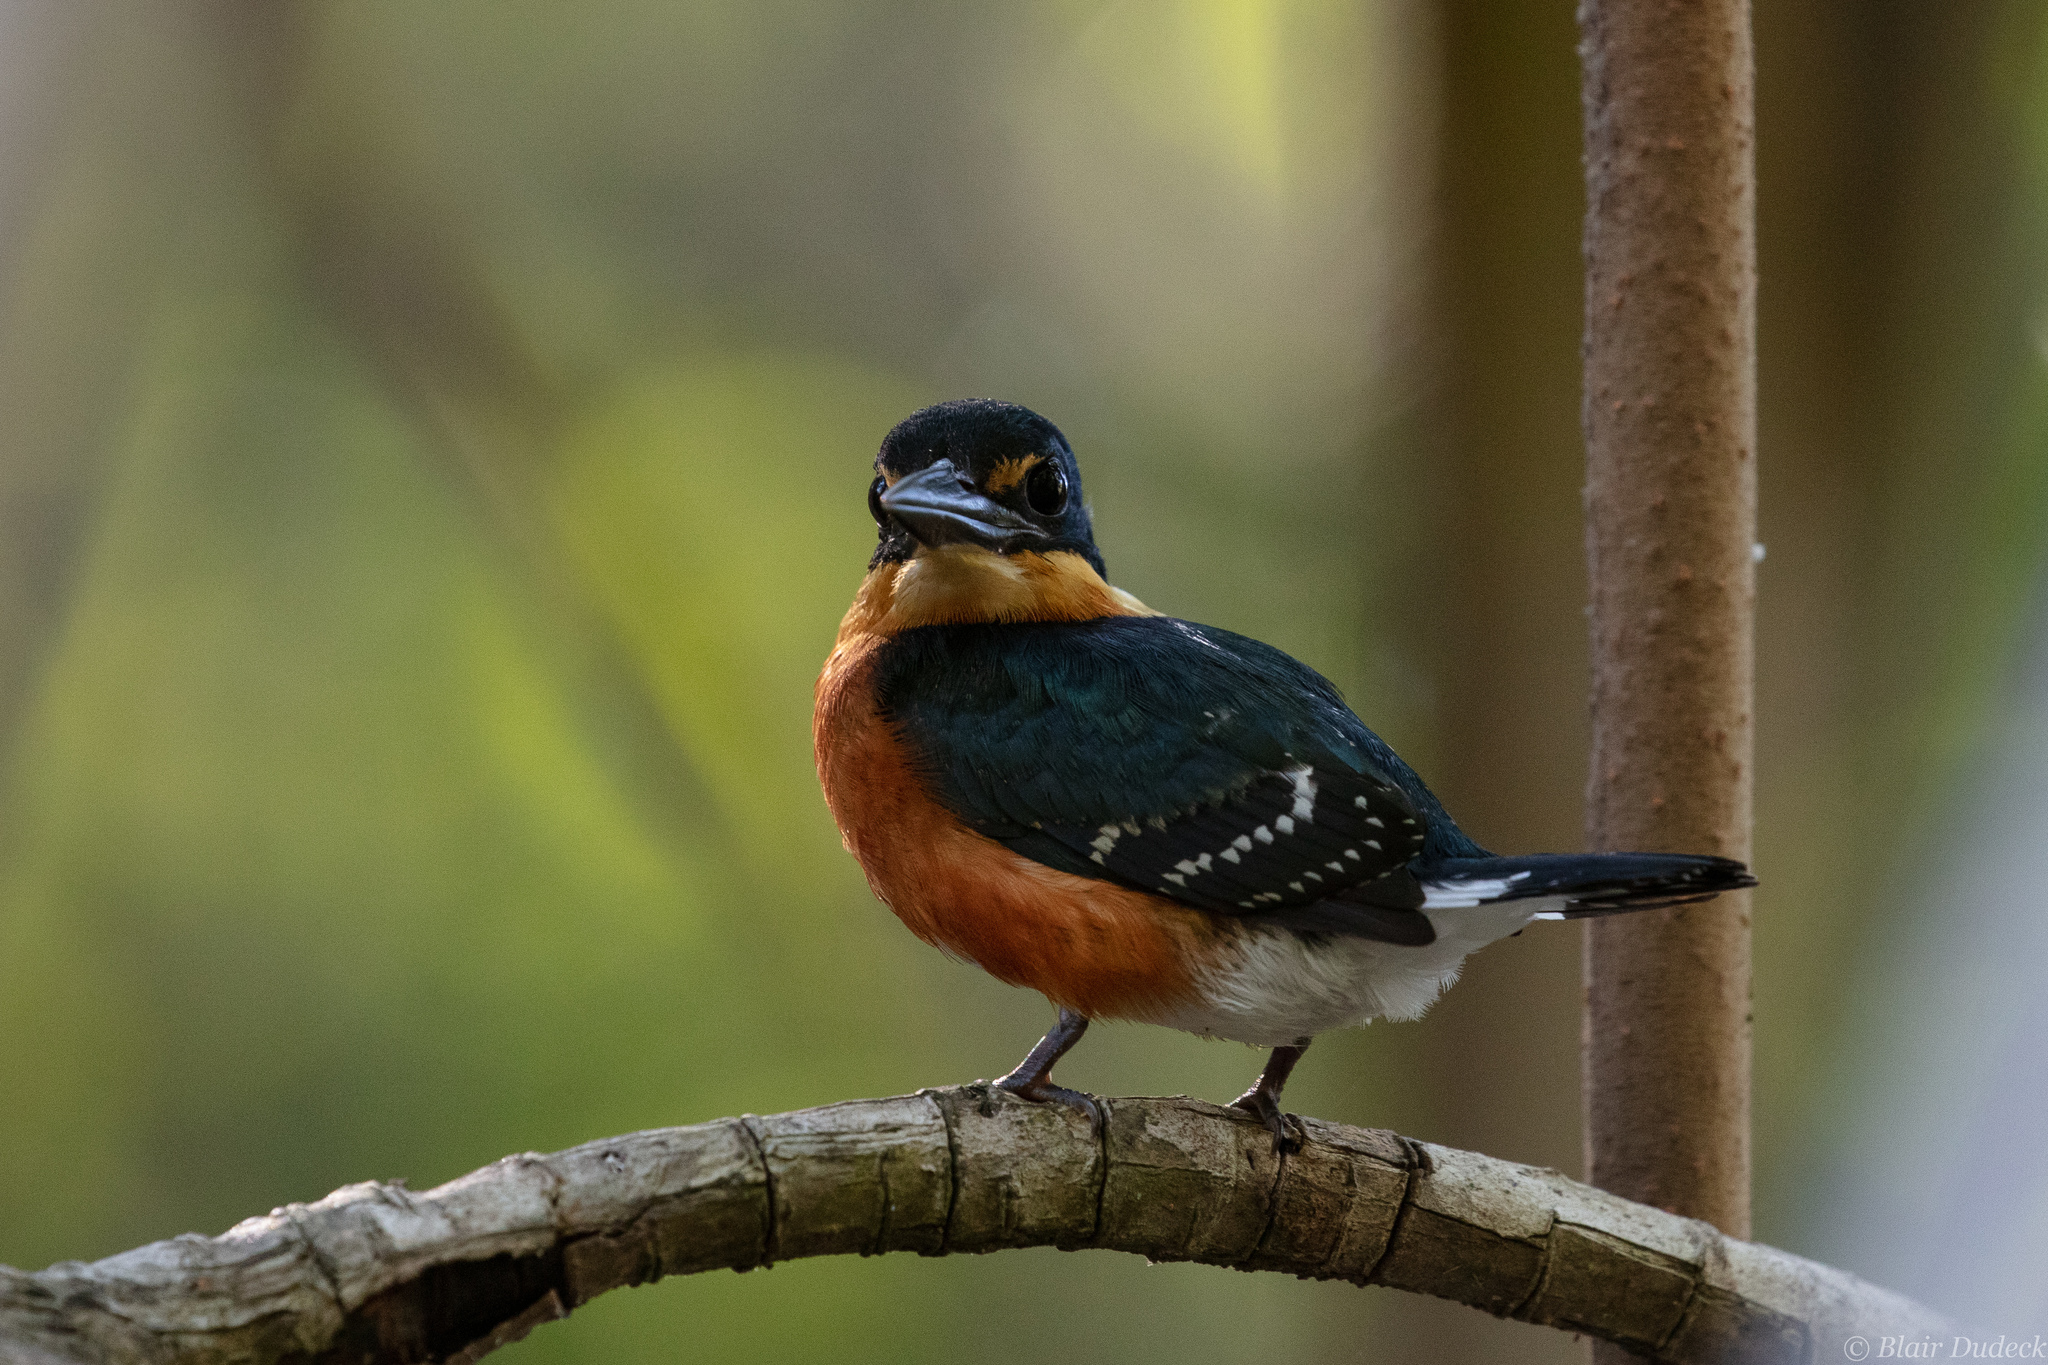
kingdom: Animalia
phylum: Chordata
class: Aves
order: Coraciiformes
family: Alcedinidae
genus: Chloroceryle
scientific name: Chloroceryle aenea
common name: American pygmy kingfisher
